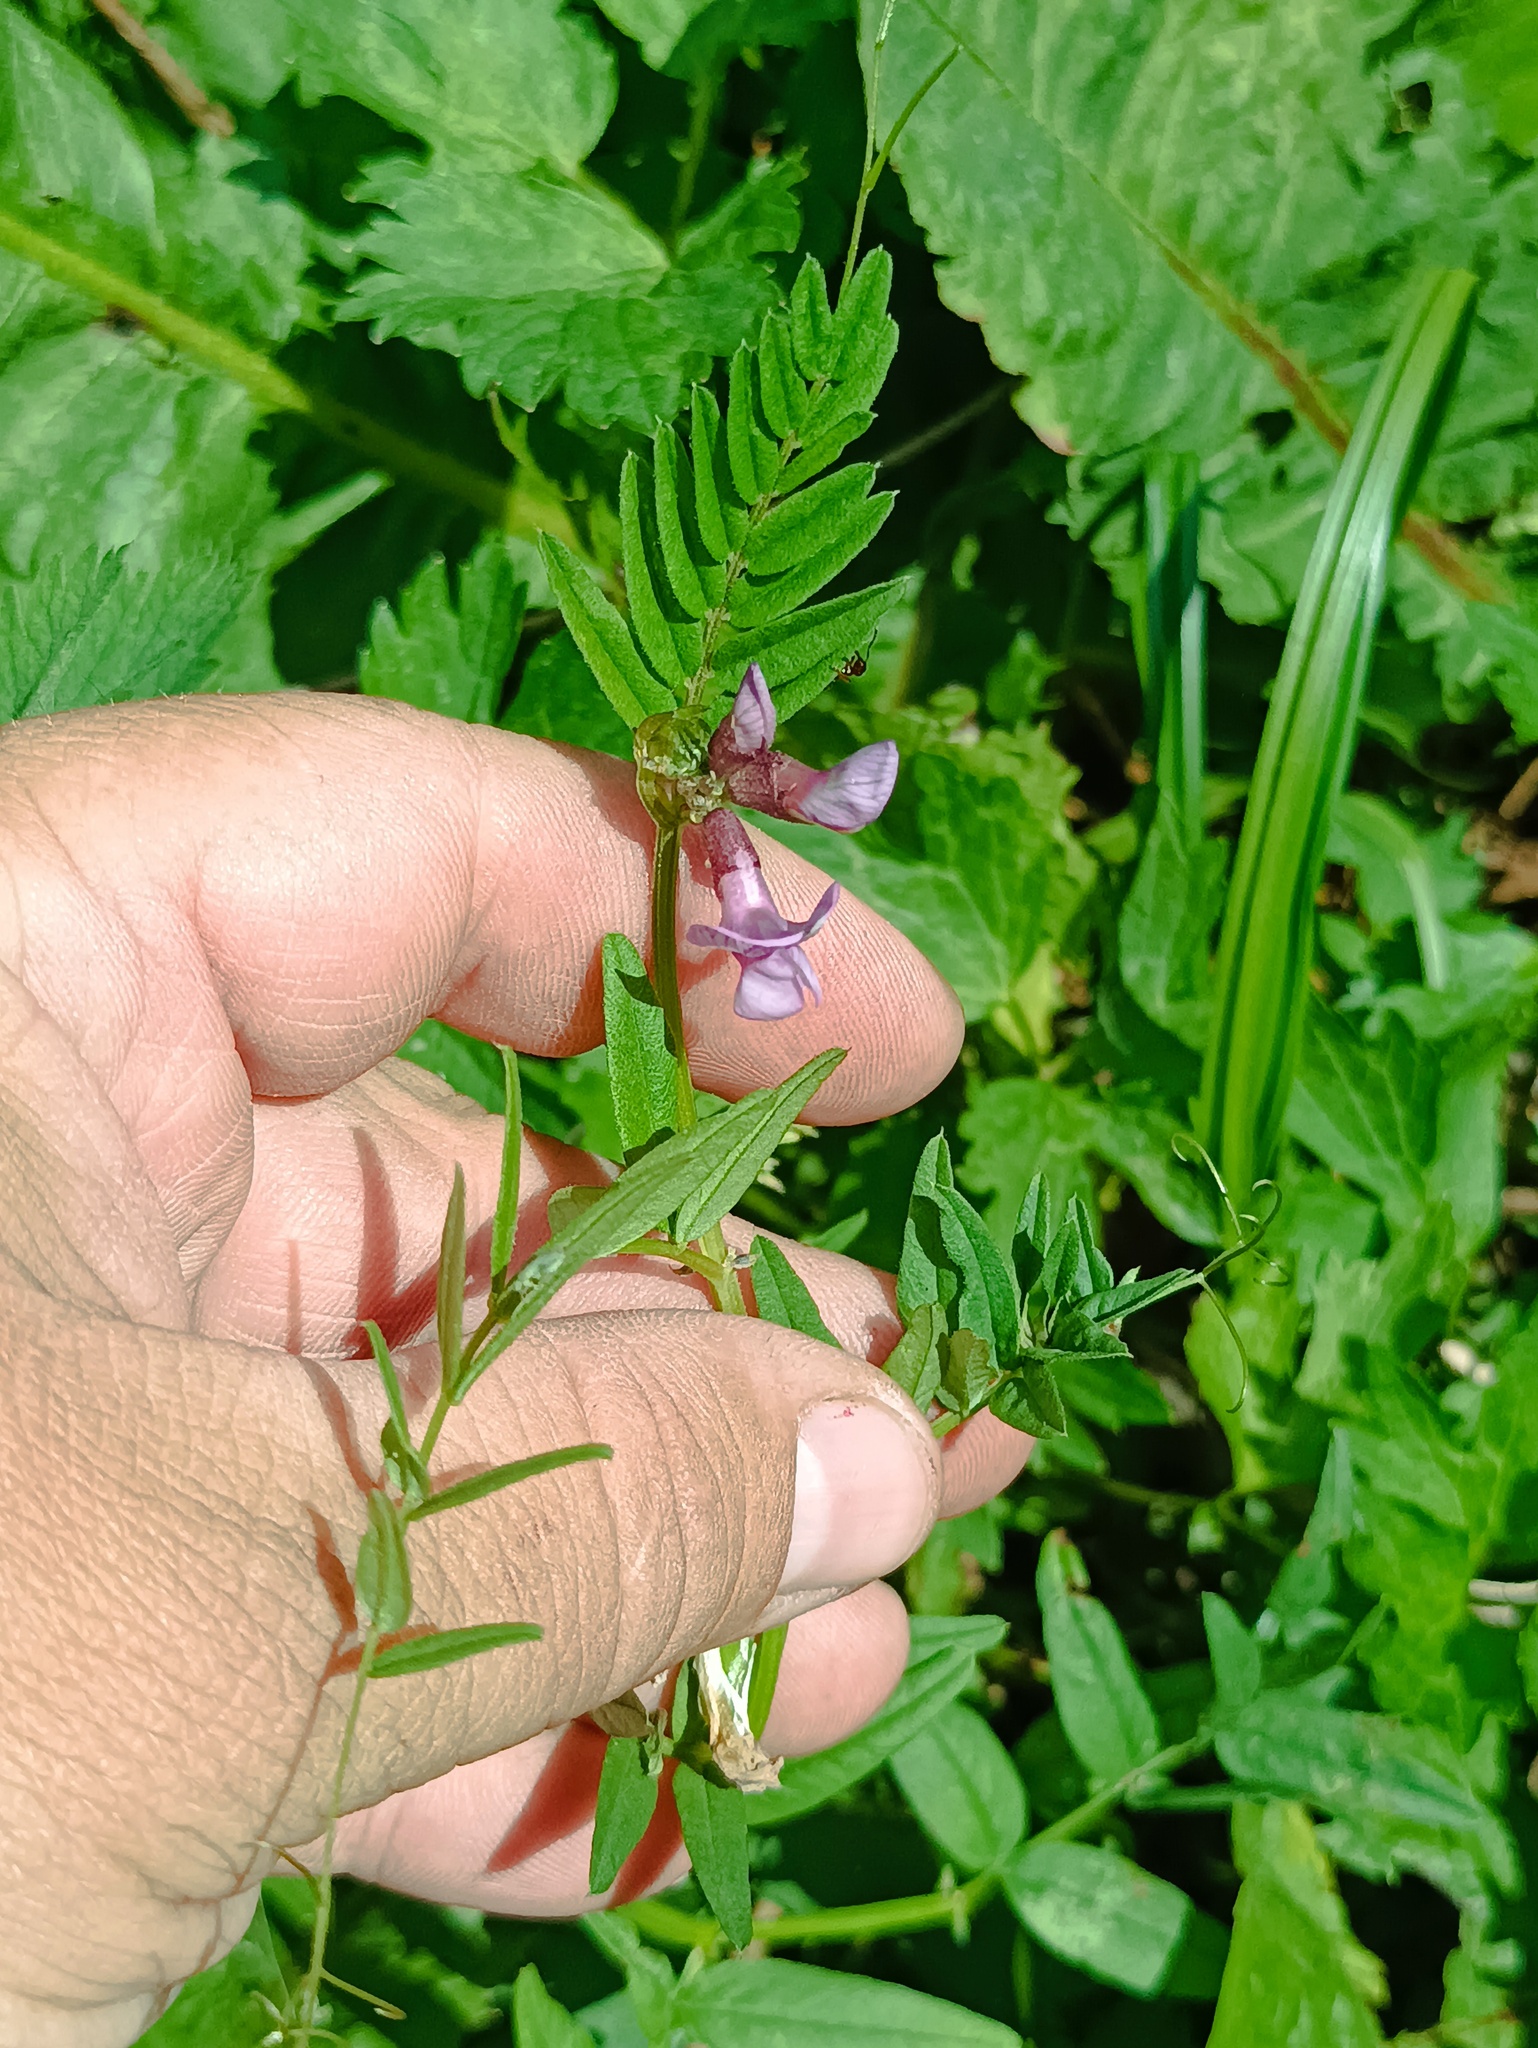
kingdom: Plantae
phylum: Tracheophyta
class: Magnoliopsida
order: Fabales
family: Fabaceae
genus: Vicia
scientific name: Vicia sepium
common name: Bush vetch
